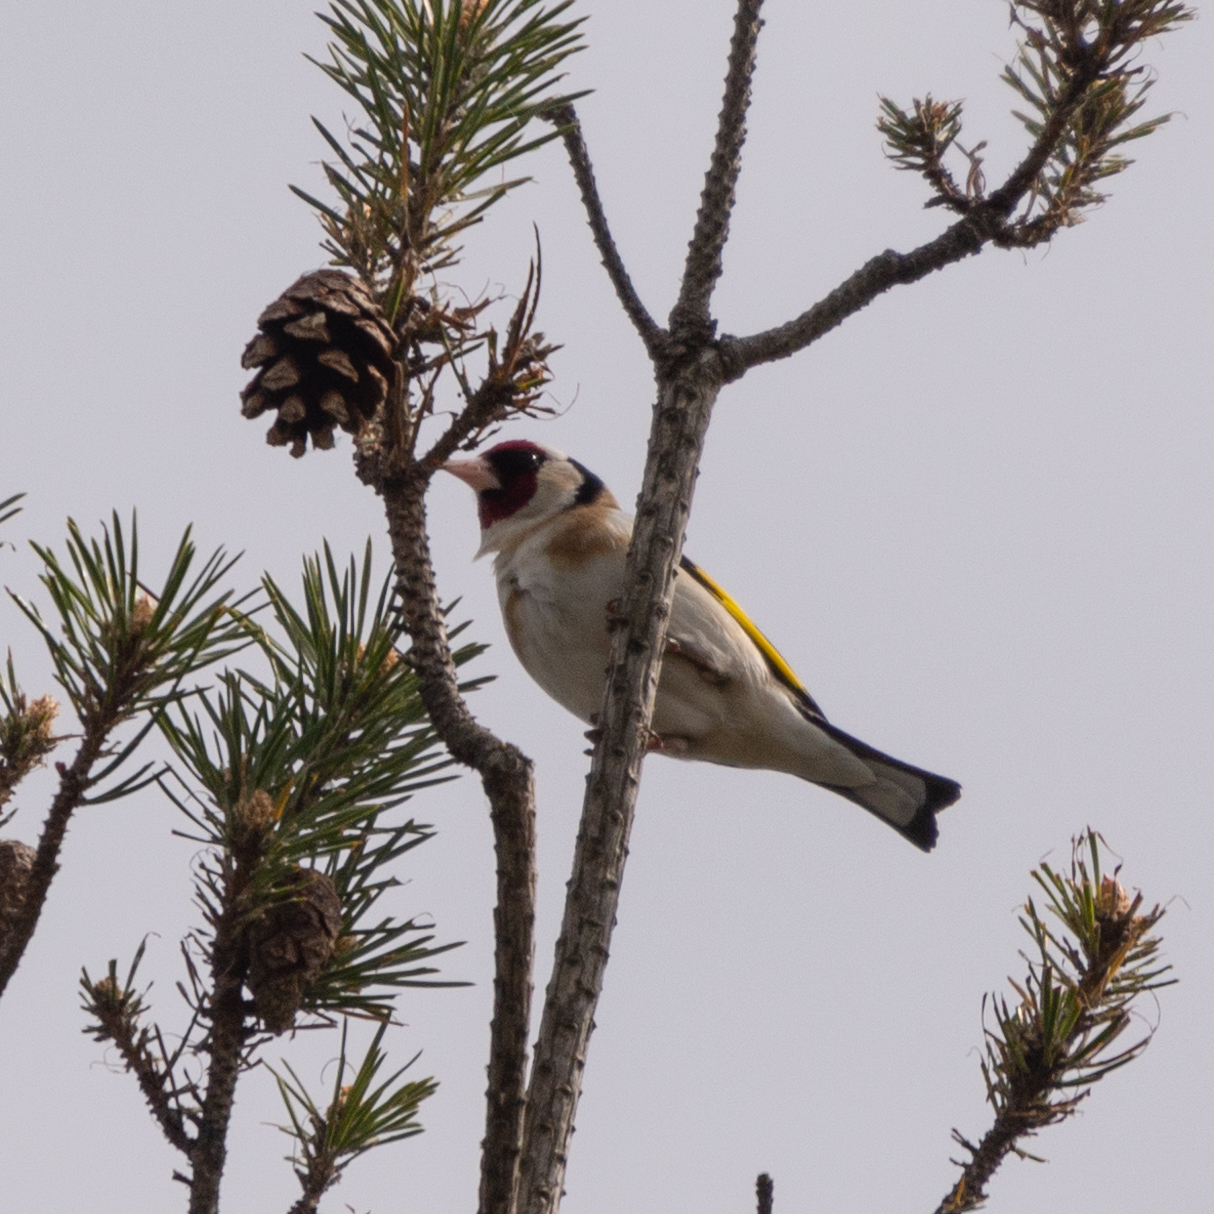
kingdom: Animalia
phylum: Chordata
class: Aves
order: Passeriformes
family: Fringillidae
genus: Carduelis
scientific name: Carduelis carduelis
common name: European goldfinch
